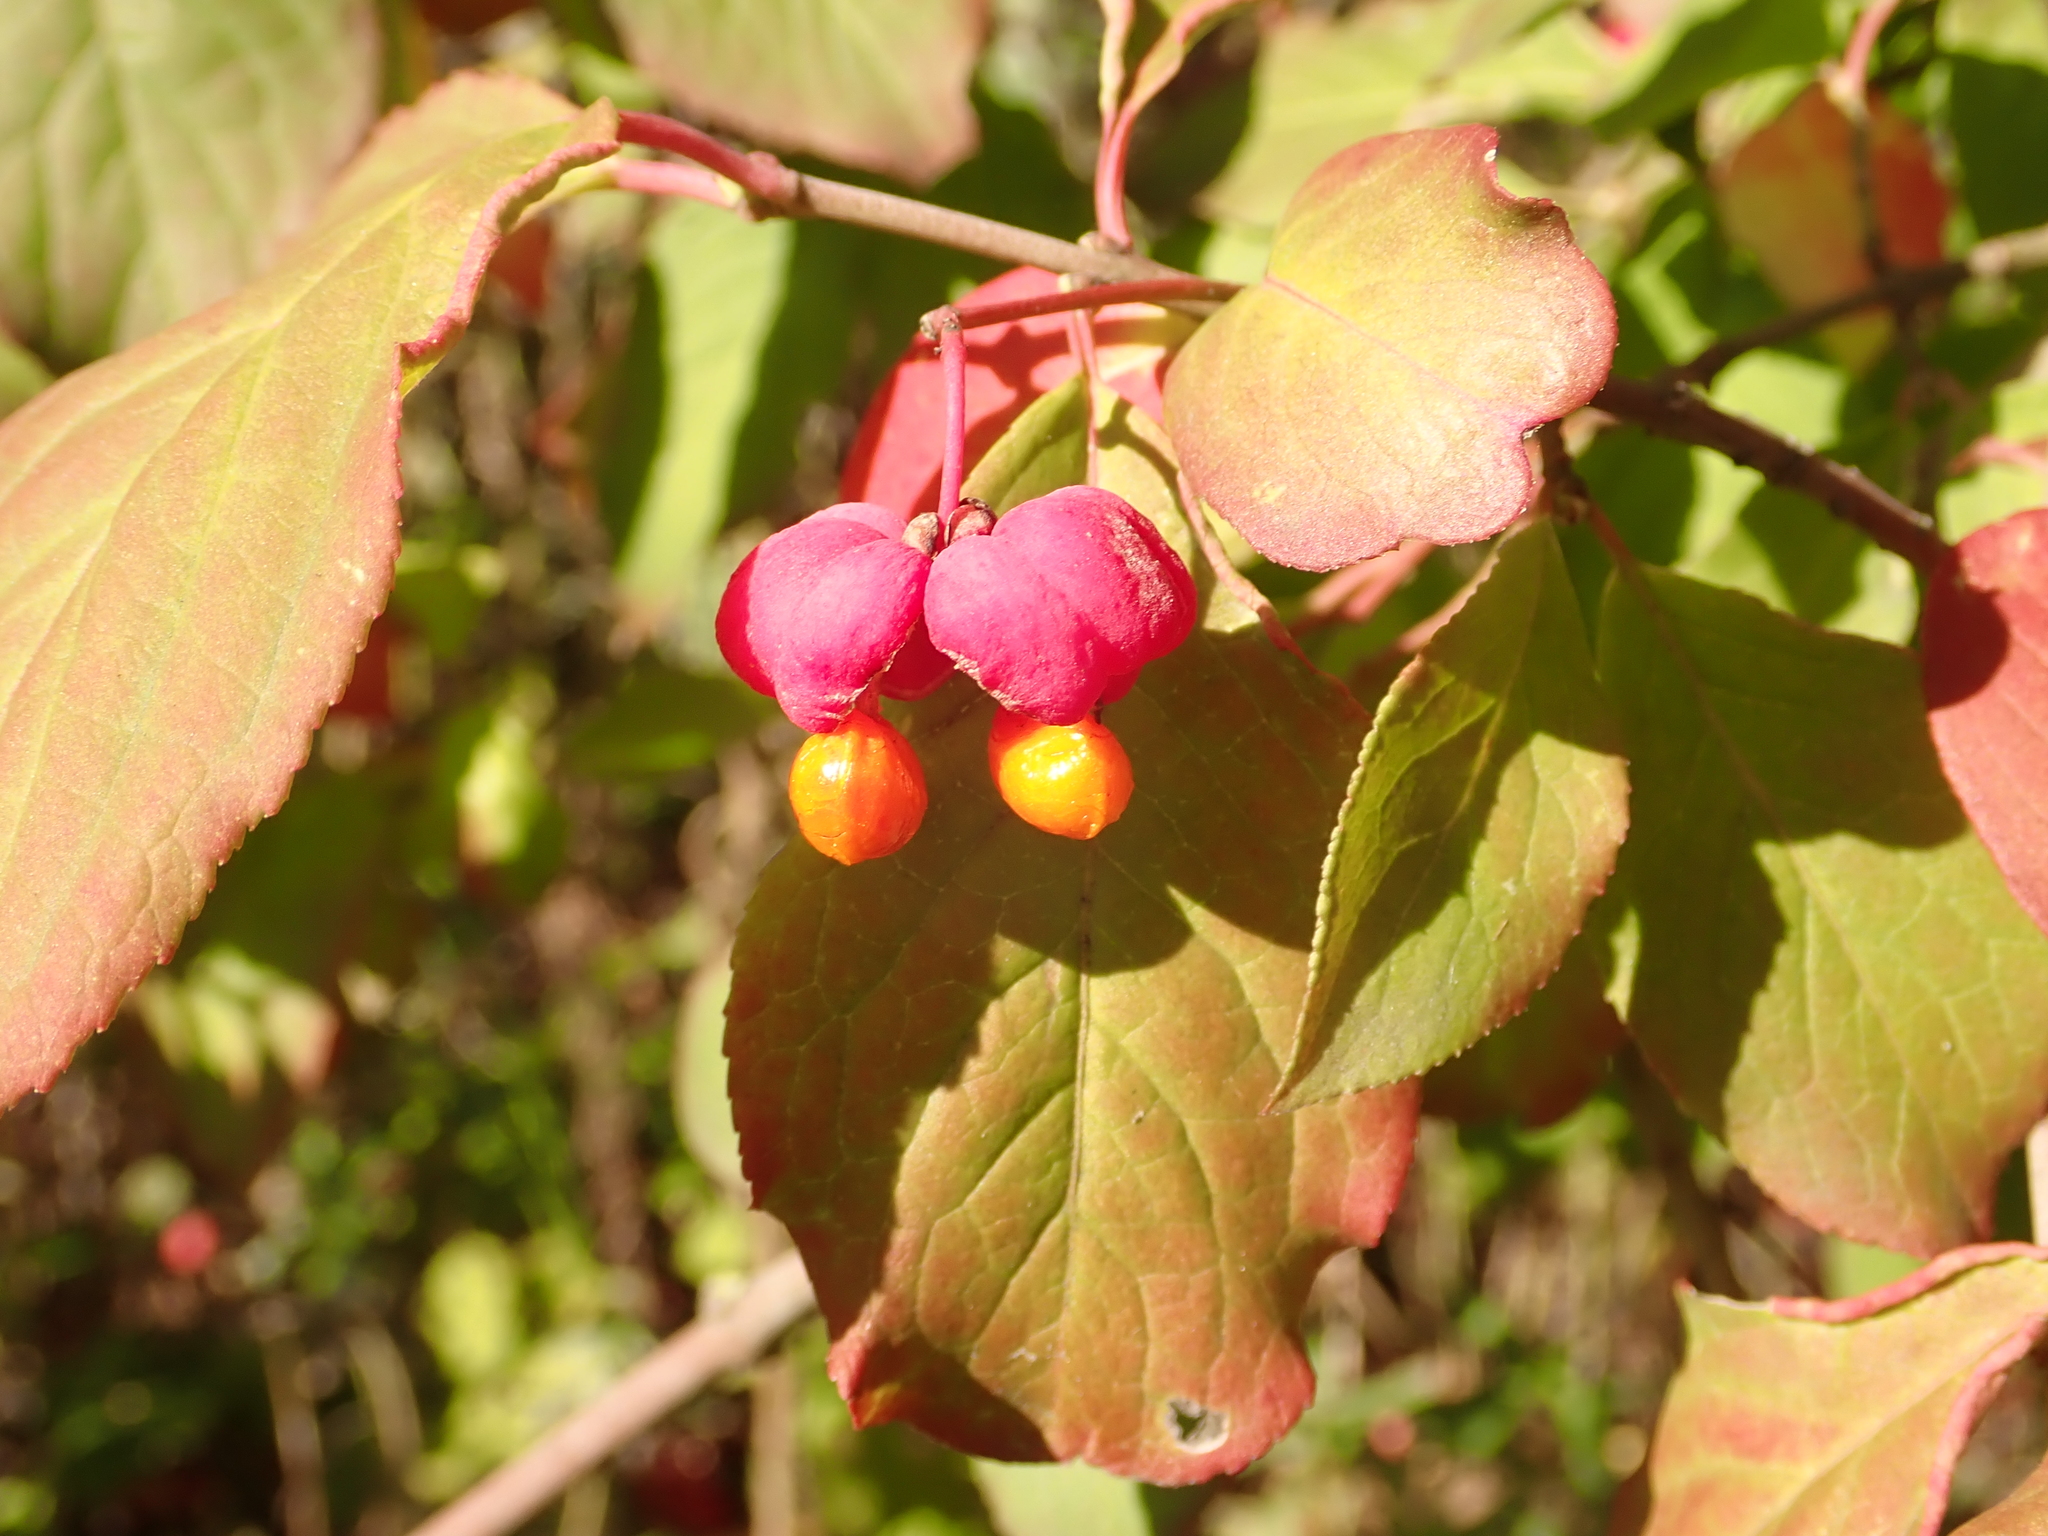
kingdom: Plantae
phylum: Tracheophyta
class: Magnoliopsida
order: Celastrales
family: Celastraceae
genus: Euonymus
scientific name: Euonymus europaeus
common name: Spindle
